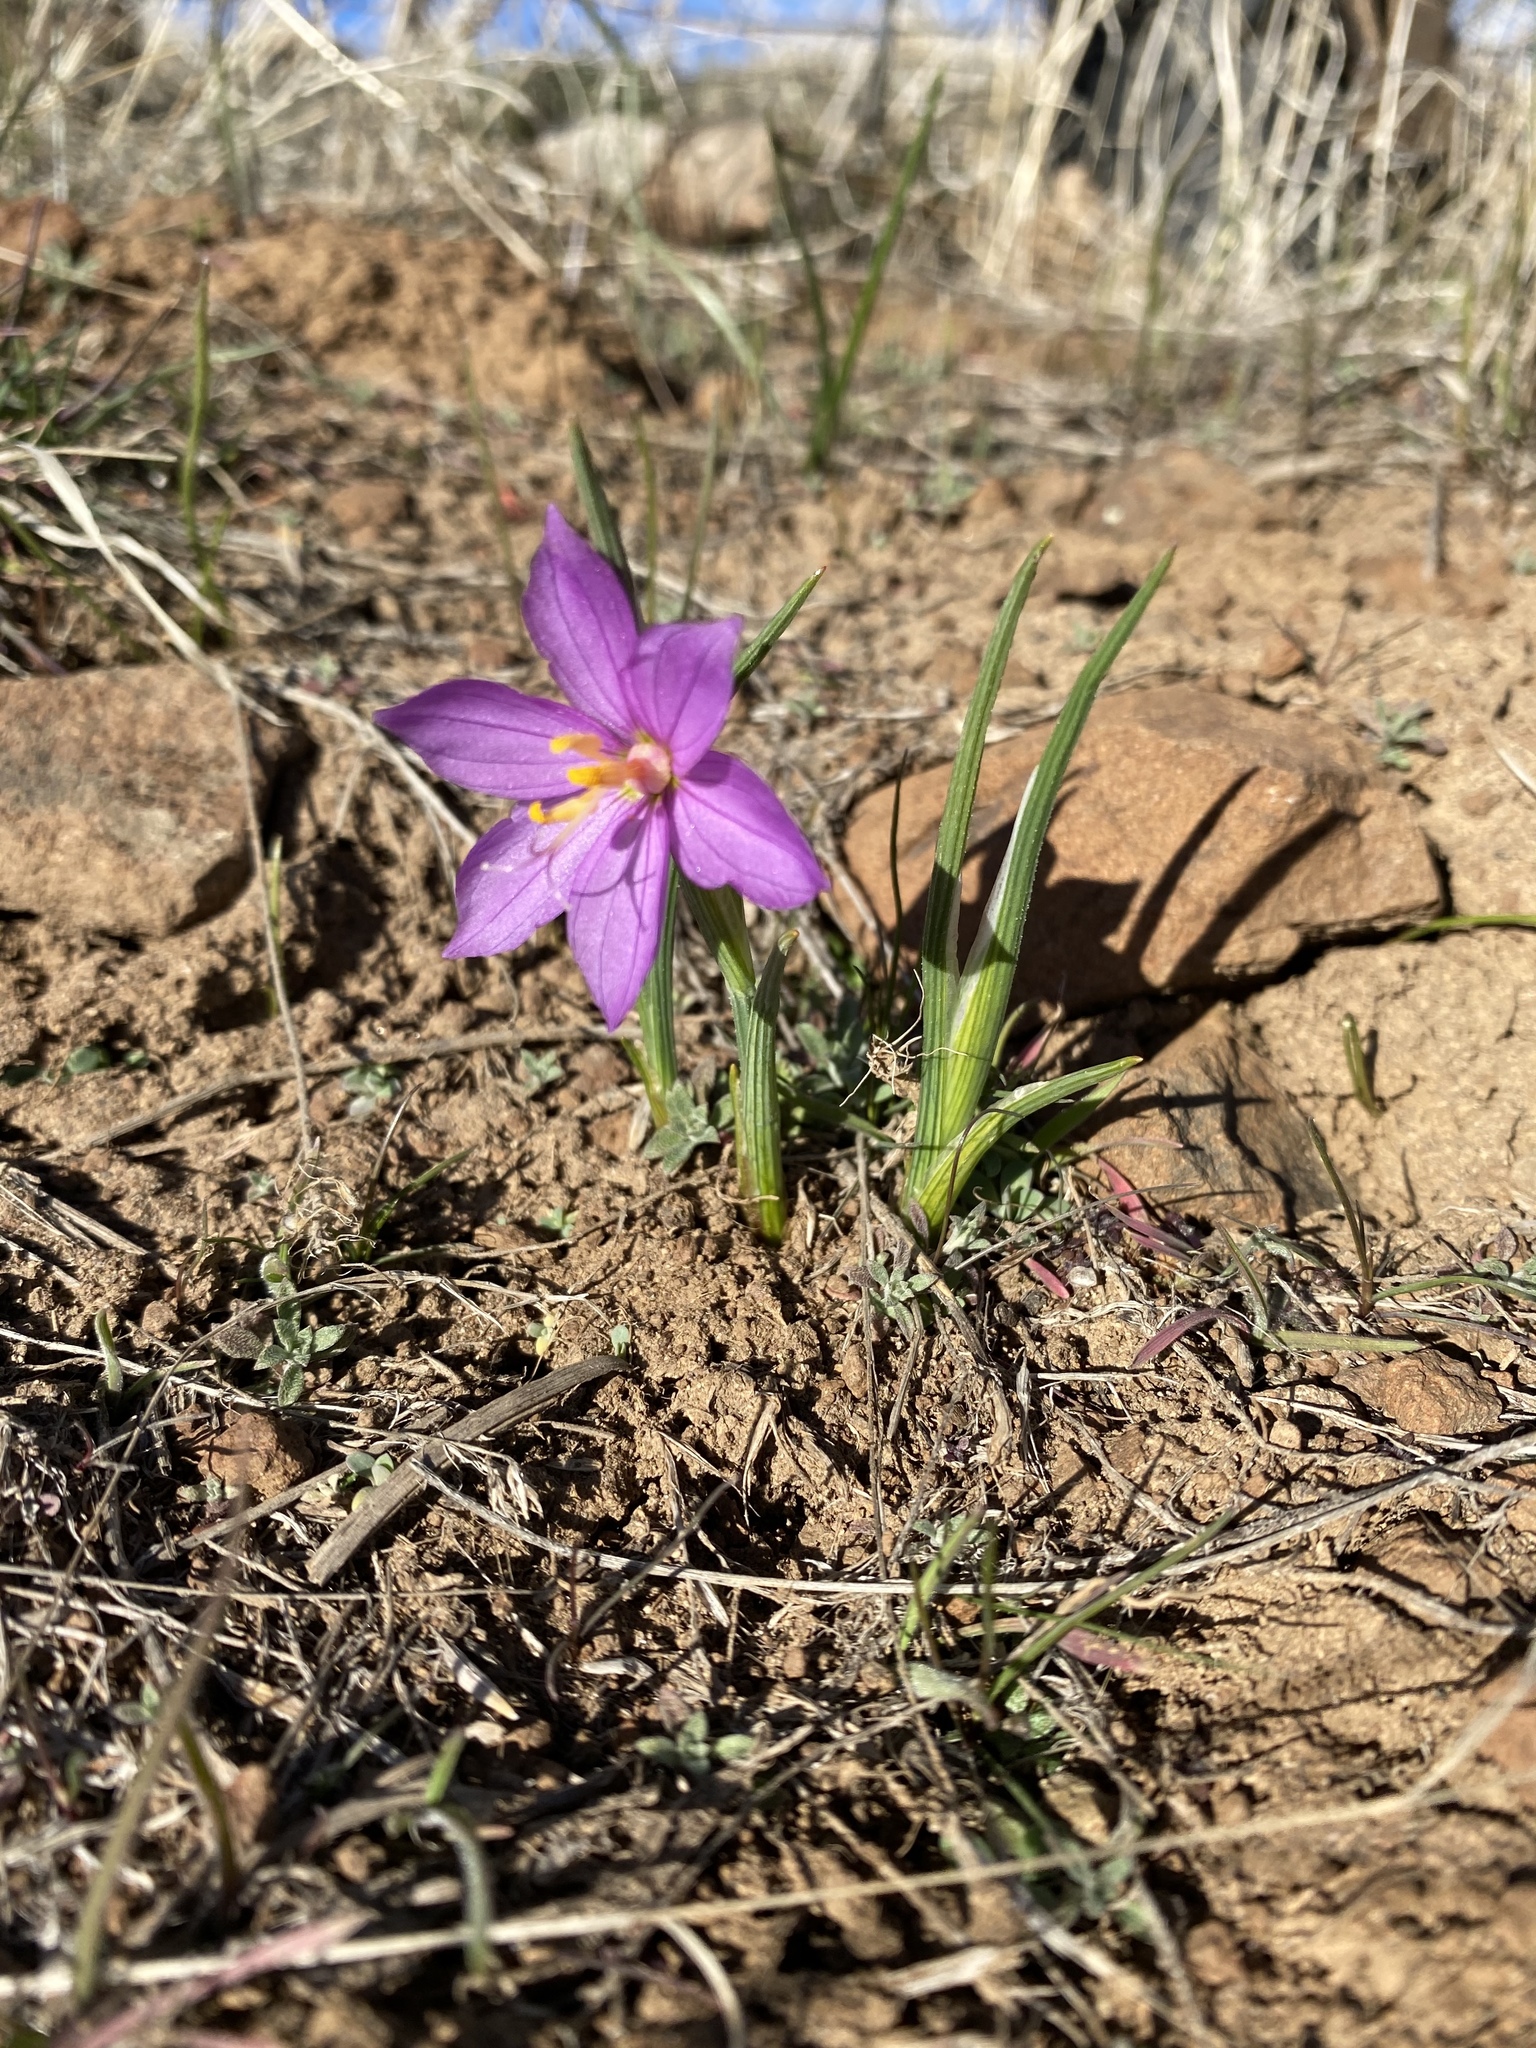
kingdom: Plantae
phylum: Tracheophyta
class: Liliopsida
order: Asparagales
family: Iridaceae
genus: Olsynium
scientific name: Olsynium douglasii
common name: Douglas' grasswidow
